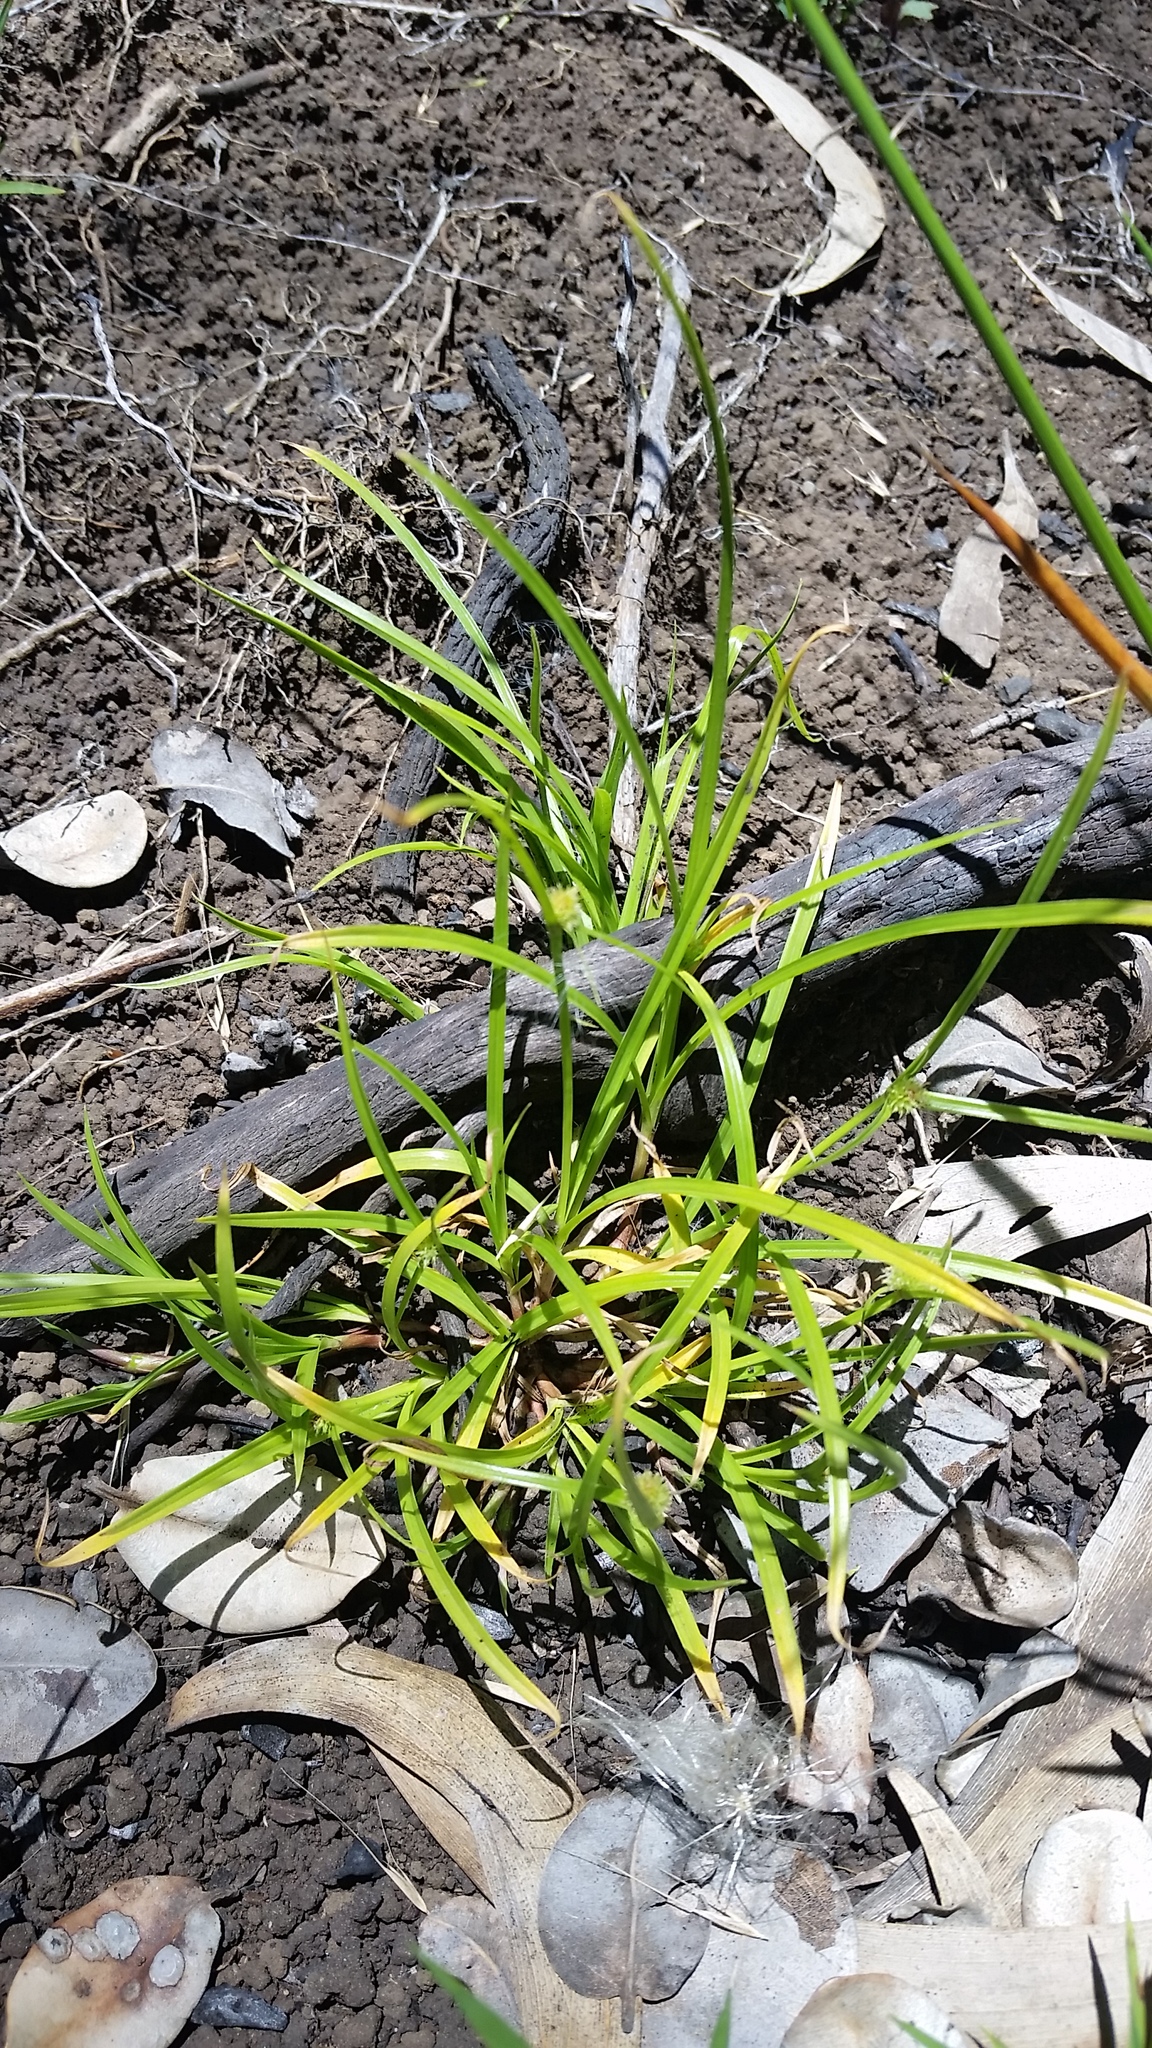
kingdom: Plantae
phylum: Tracheophyta
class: Liliopsida
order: Poales
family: Cyperaceae
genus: Cyperus
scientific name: Cyperus brevifolius
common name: Globe kyllinga
